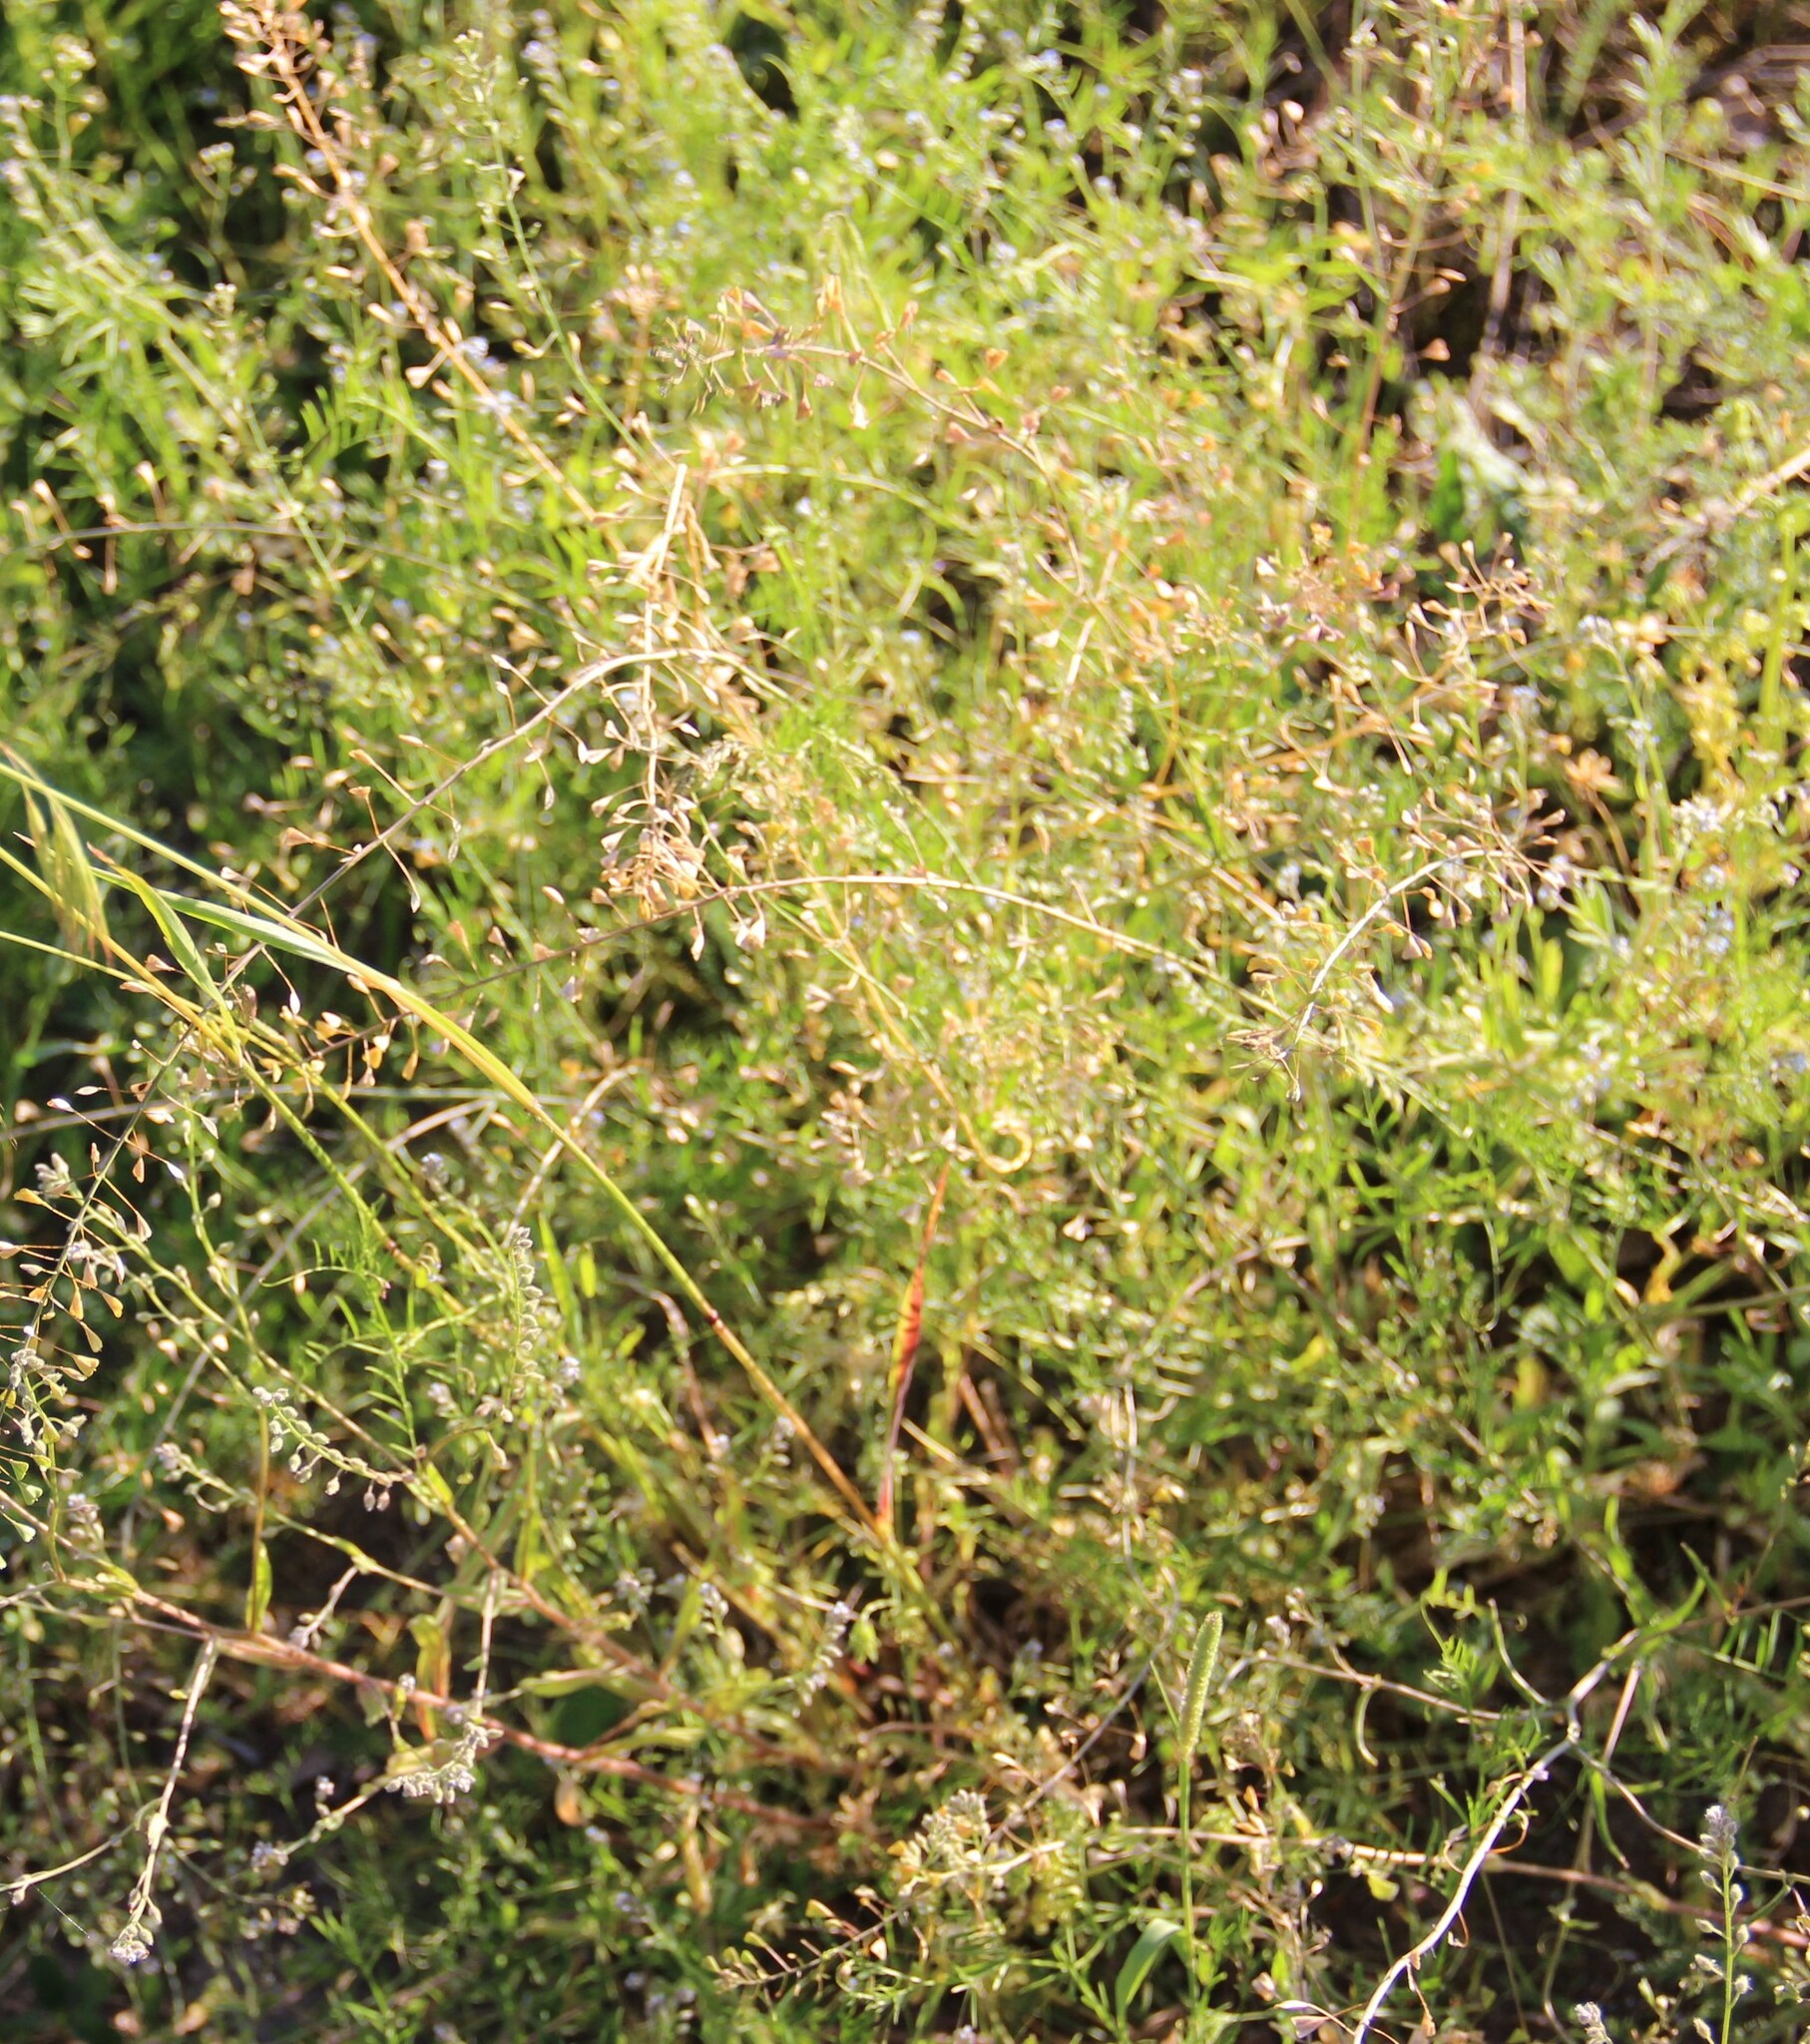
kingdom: Plantae
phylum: Tracheophyta
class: Magnoliopsida
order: Brassicales
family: Brassicaceae
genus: Capsella
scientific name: Capsella bursa-pastoris
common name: Shepherd's purse
